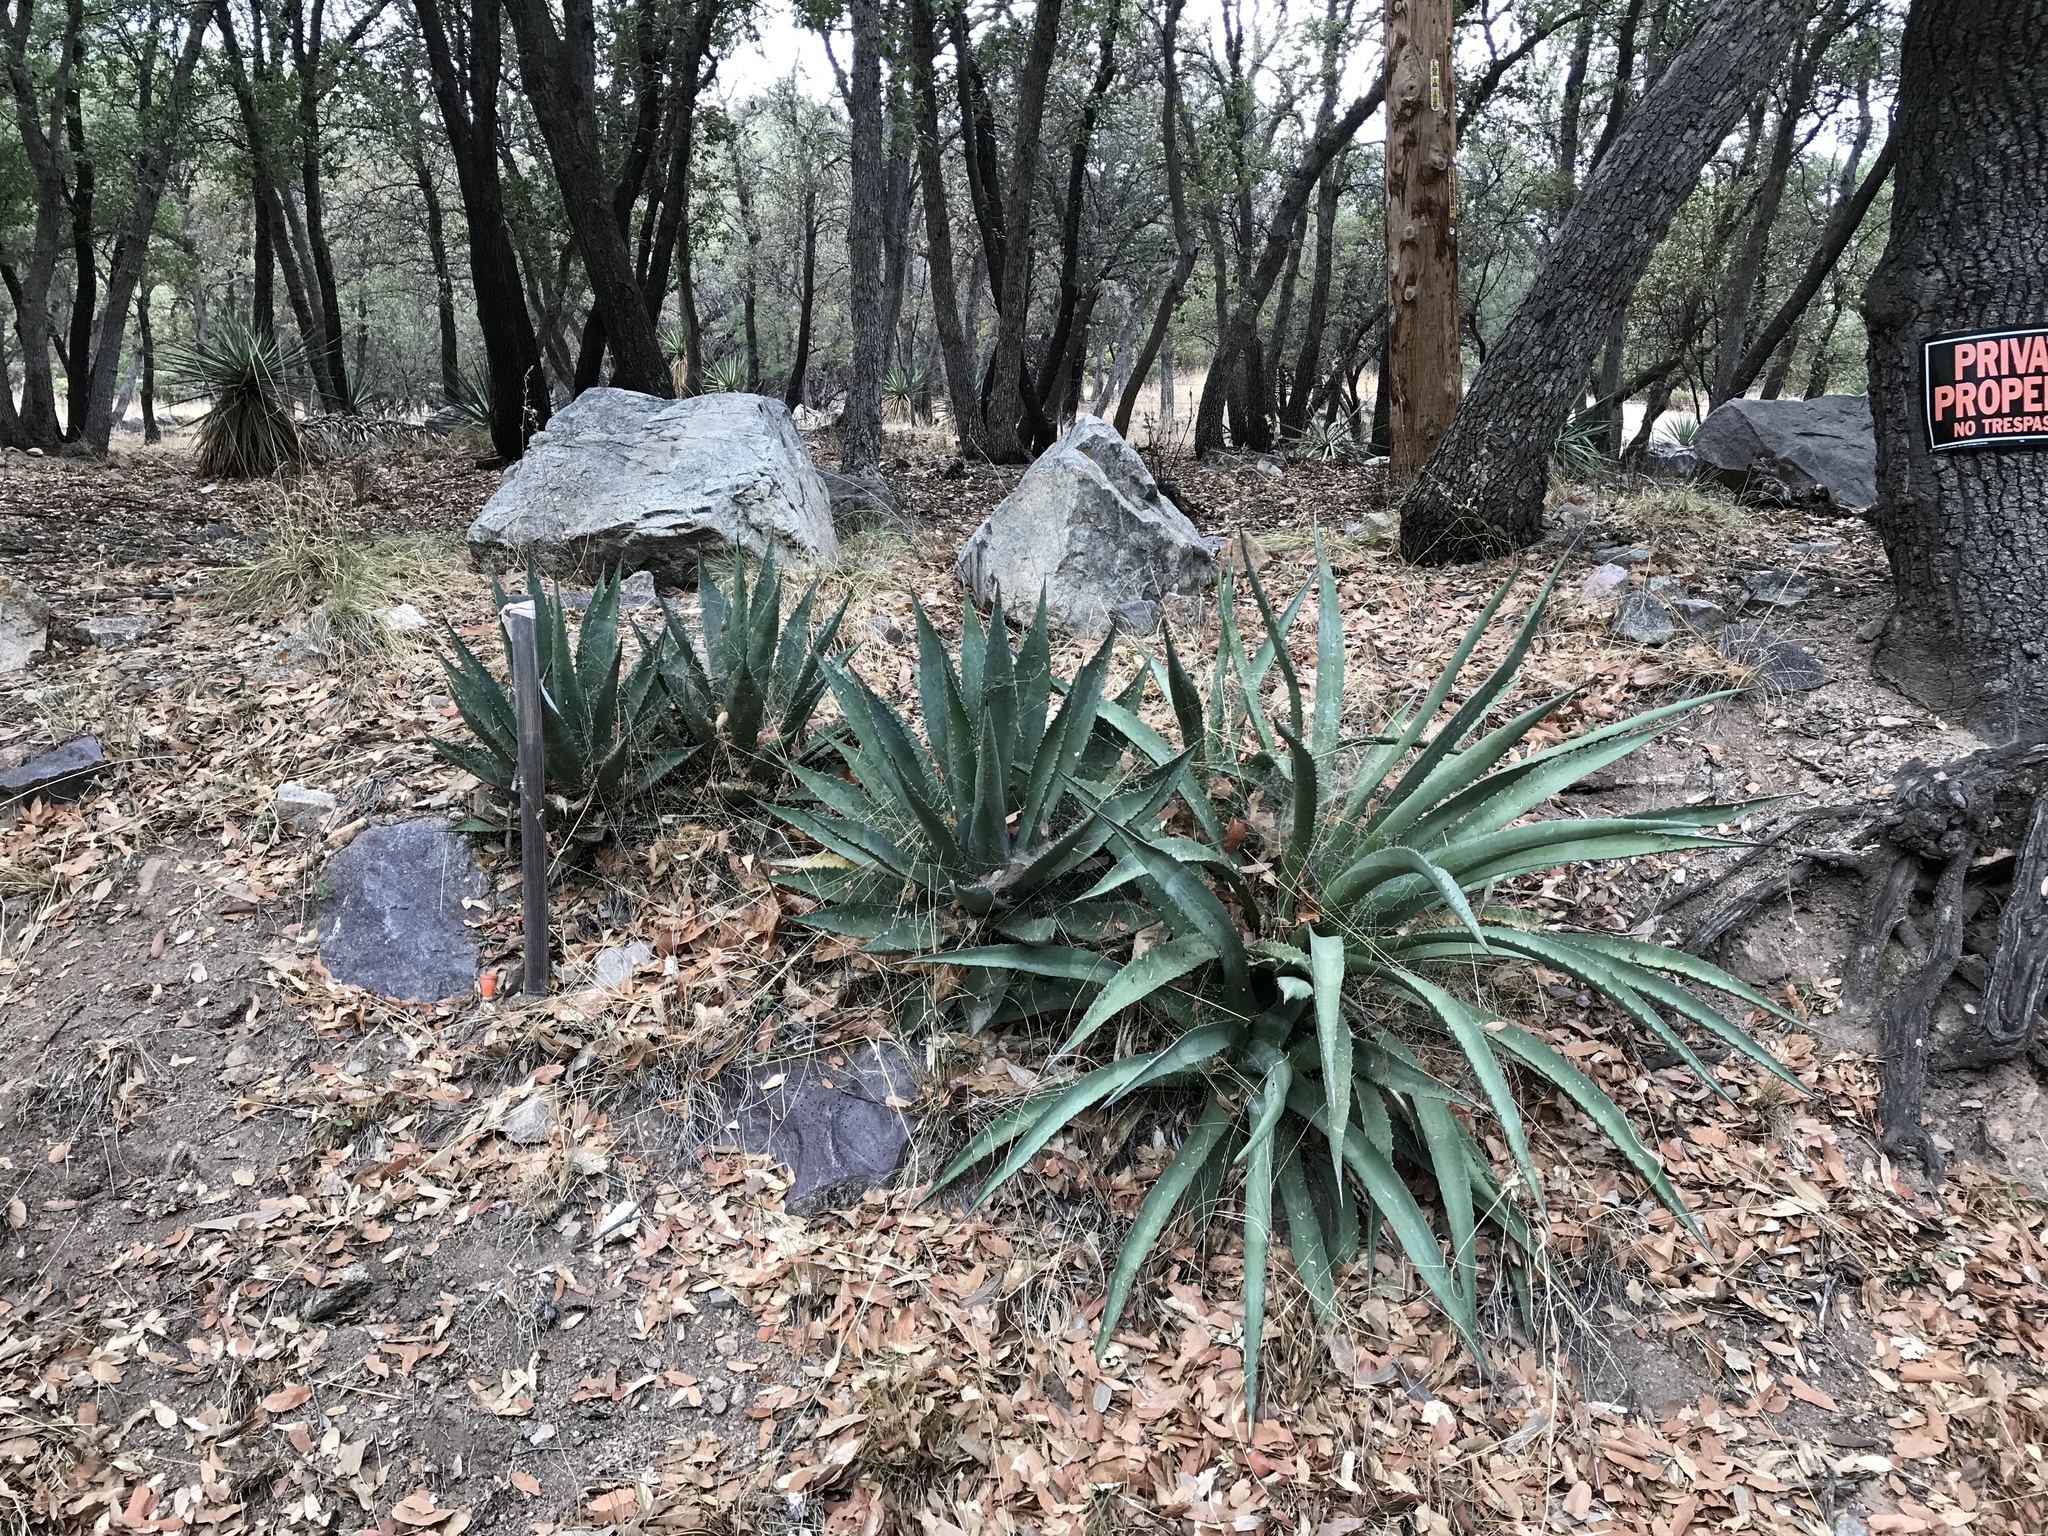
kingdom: Plantae
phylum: Tracheophyta
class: Liliopsida
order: Asparagales
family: Asparagaceae
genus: Agave
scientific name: Agave palmeri
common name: Palmer agave
